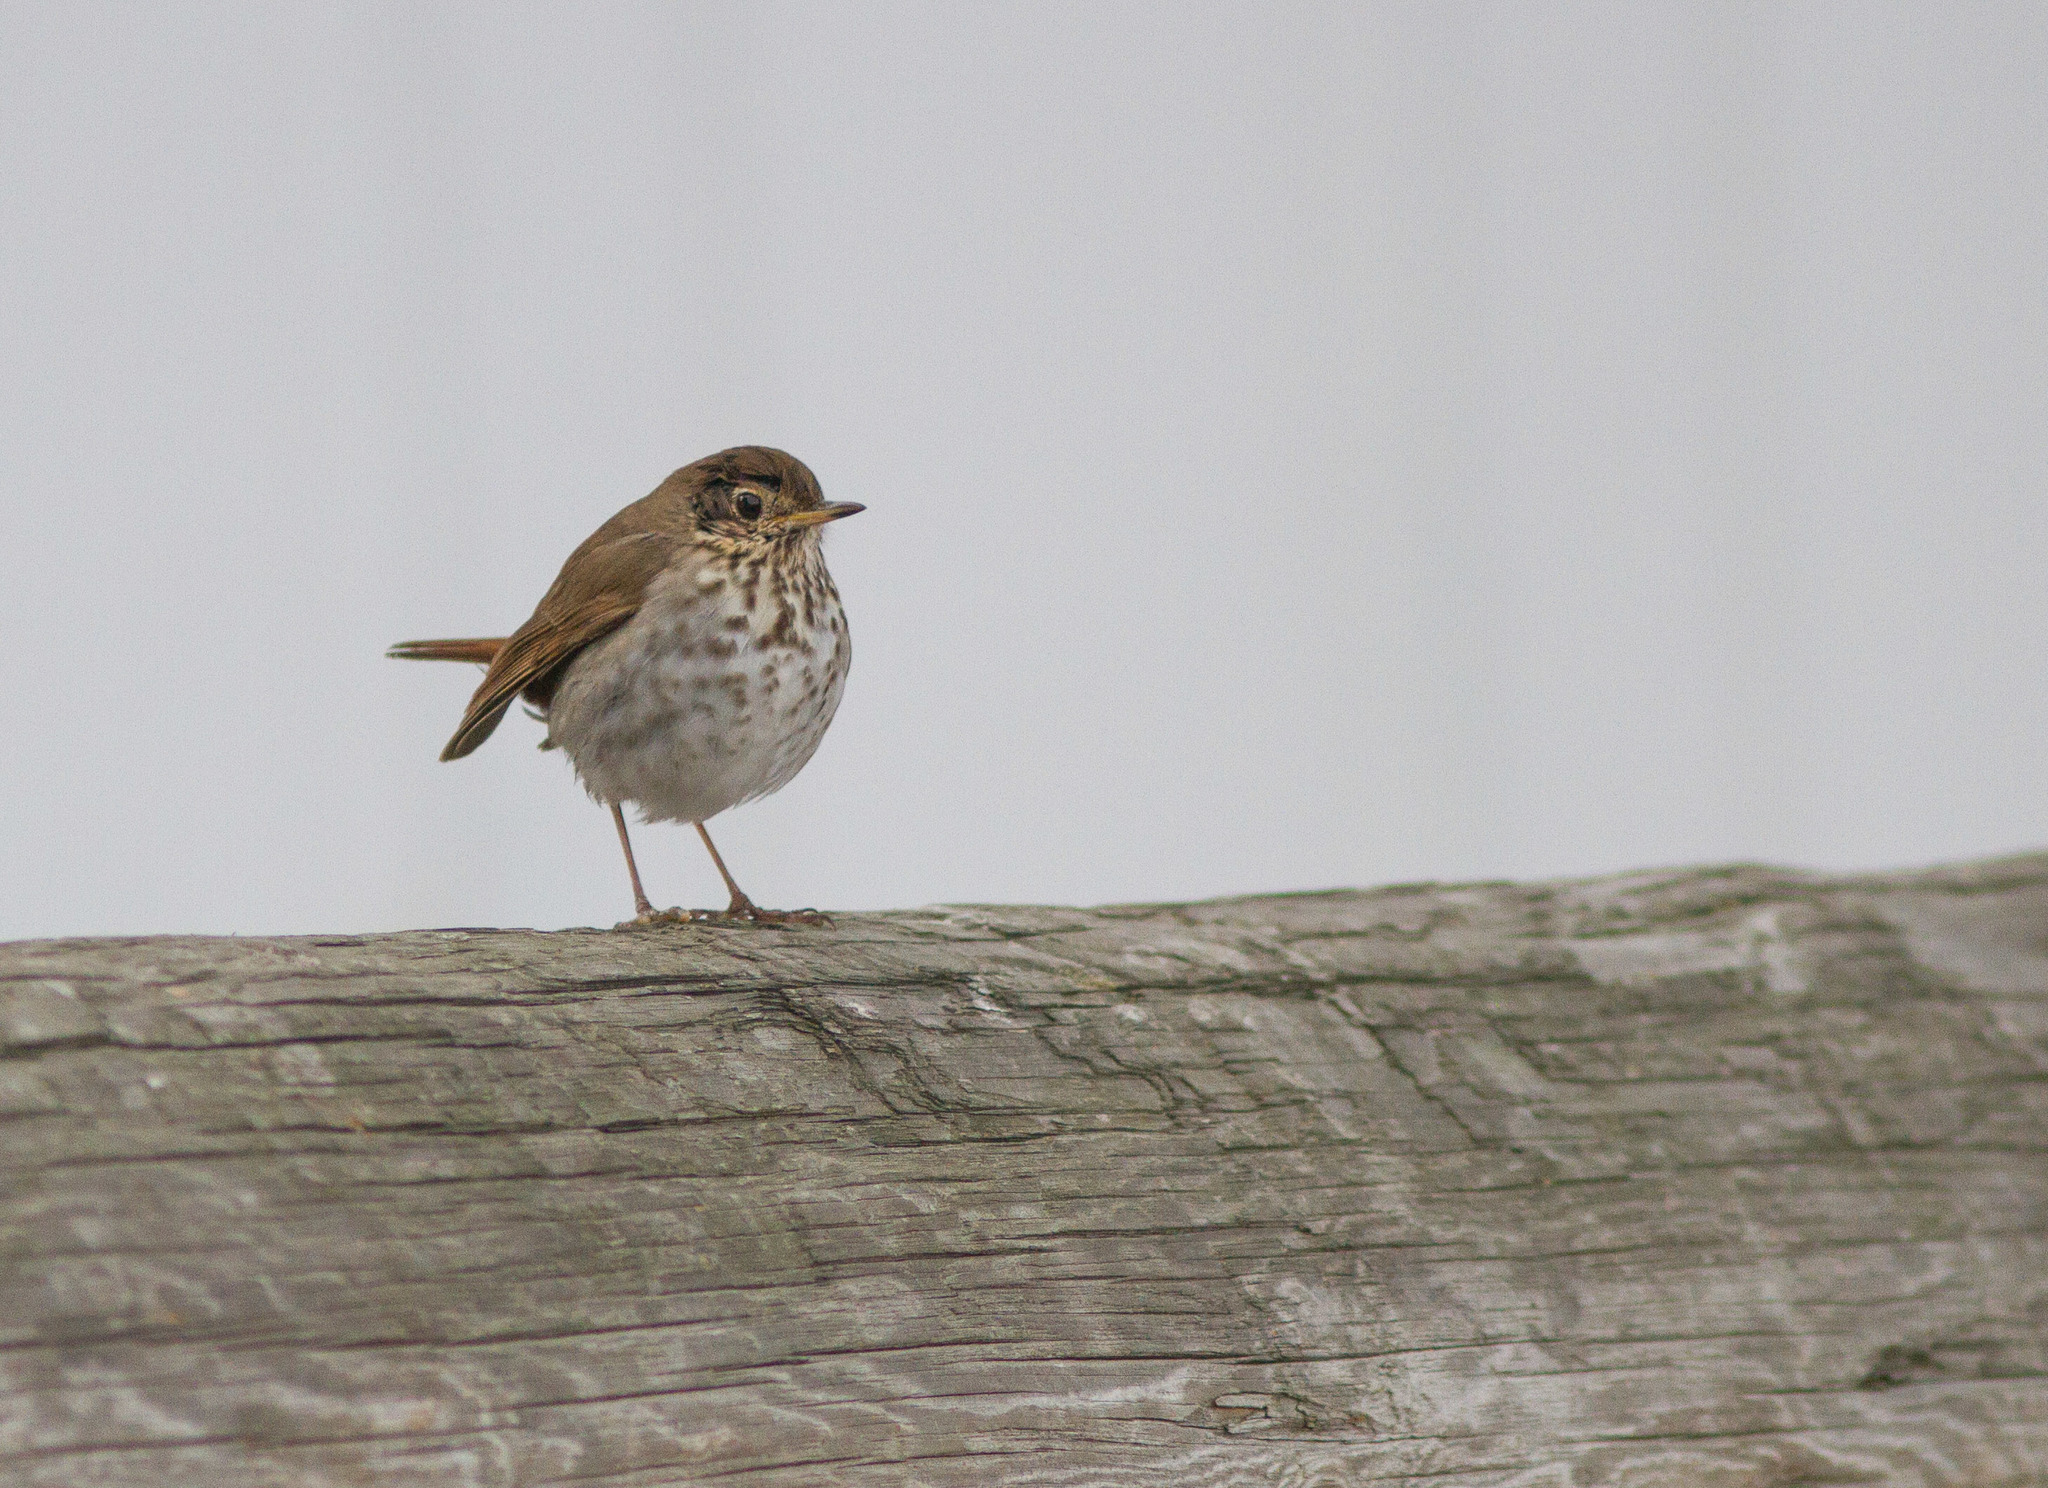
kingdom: Animalia
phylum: Chordata
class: Aves
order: Passeriformes
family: Turdidae
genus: Catharus
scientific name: Catharus guttatus
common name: Hermit thrush
